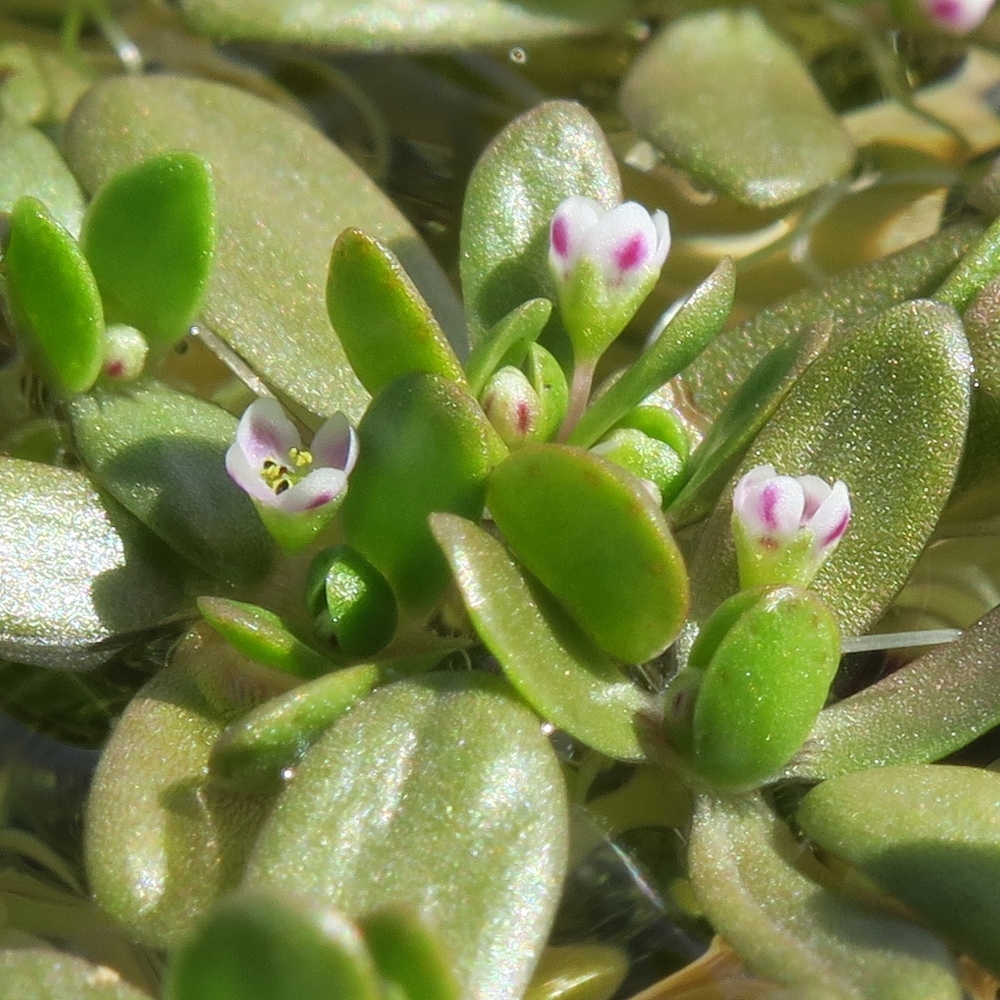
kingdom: Plantae
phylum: Tracheophyta
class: Magnoliopsida
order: Saxifragales
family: Crassulaceae
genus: Crassula
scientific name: Crassula natans
